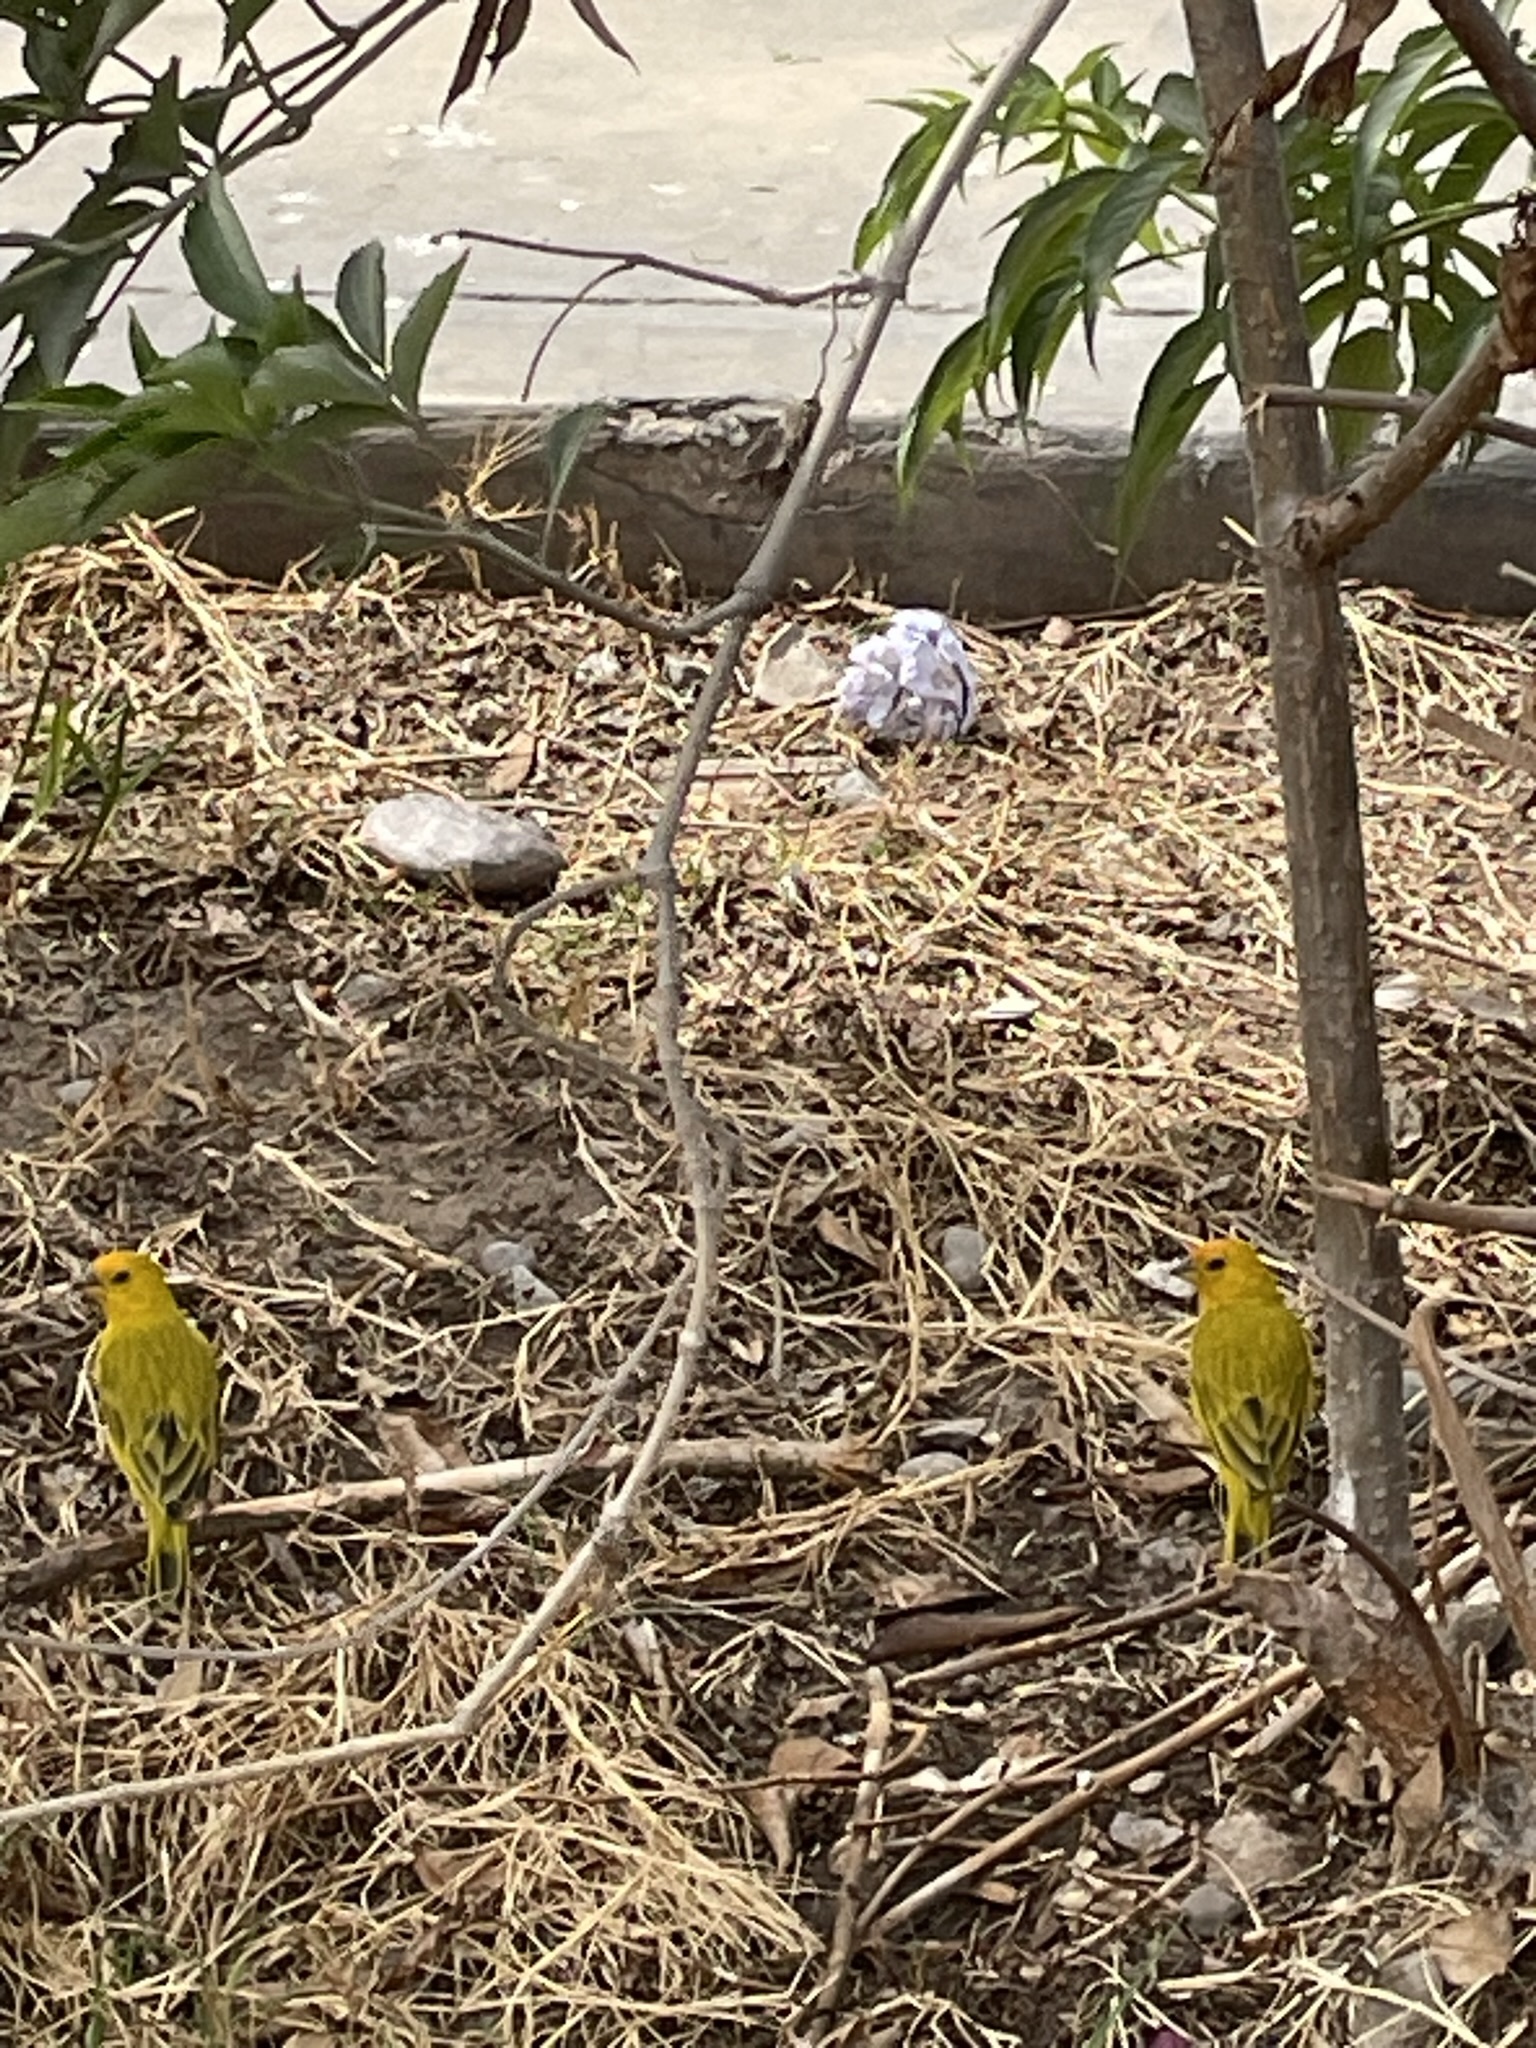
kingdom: Animalia
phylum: Chordata
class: Aves
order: Passeriformes
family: Thraupidae
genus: Sicalis
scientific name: Sicalis flaveola
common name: Saffron finch
